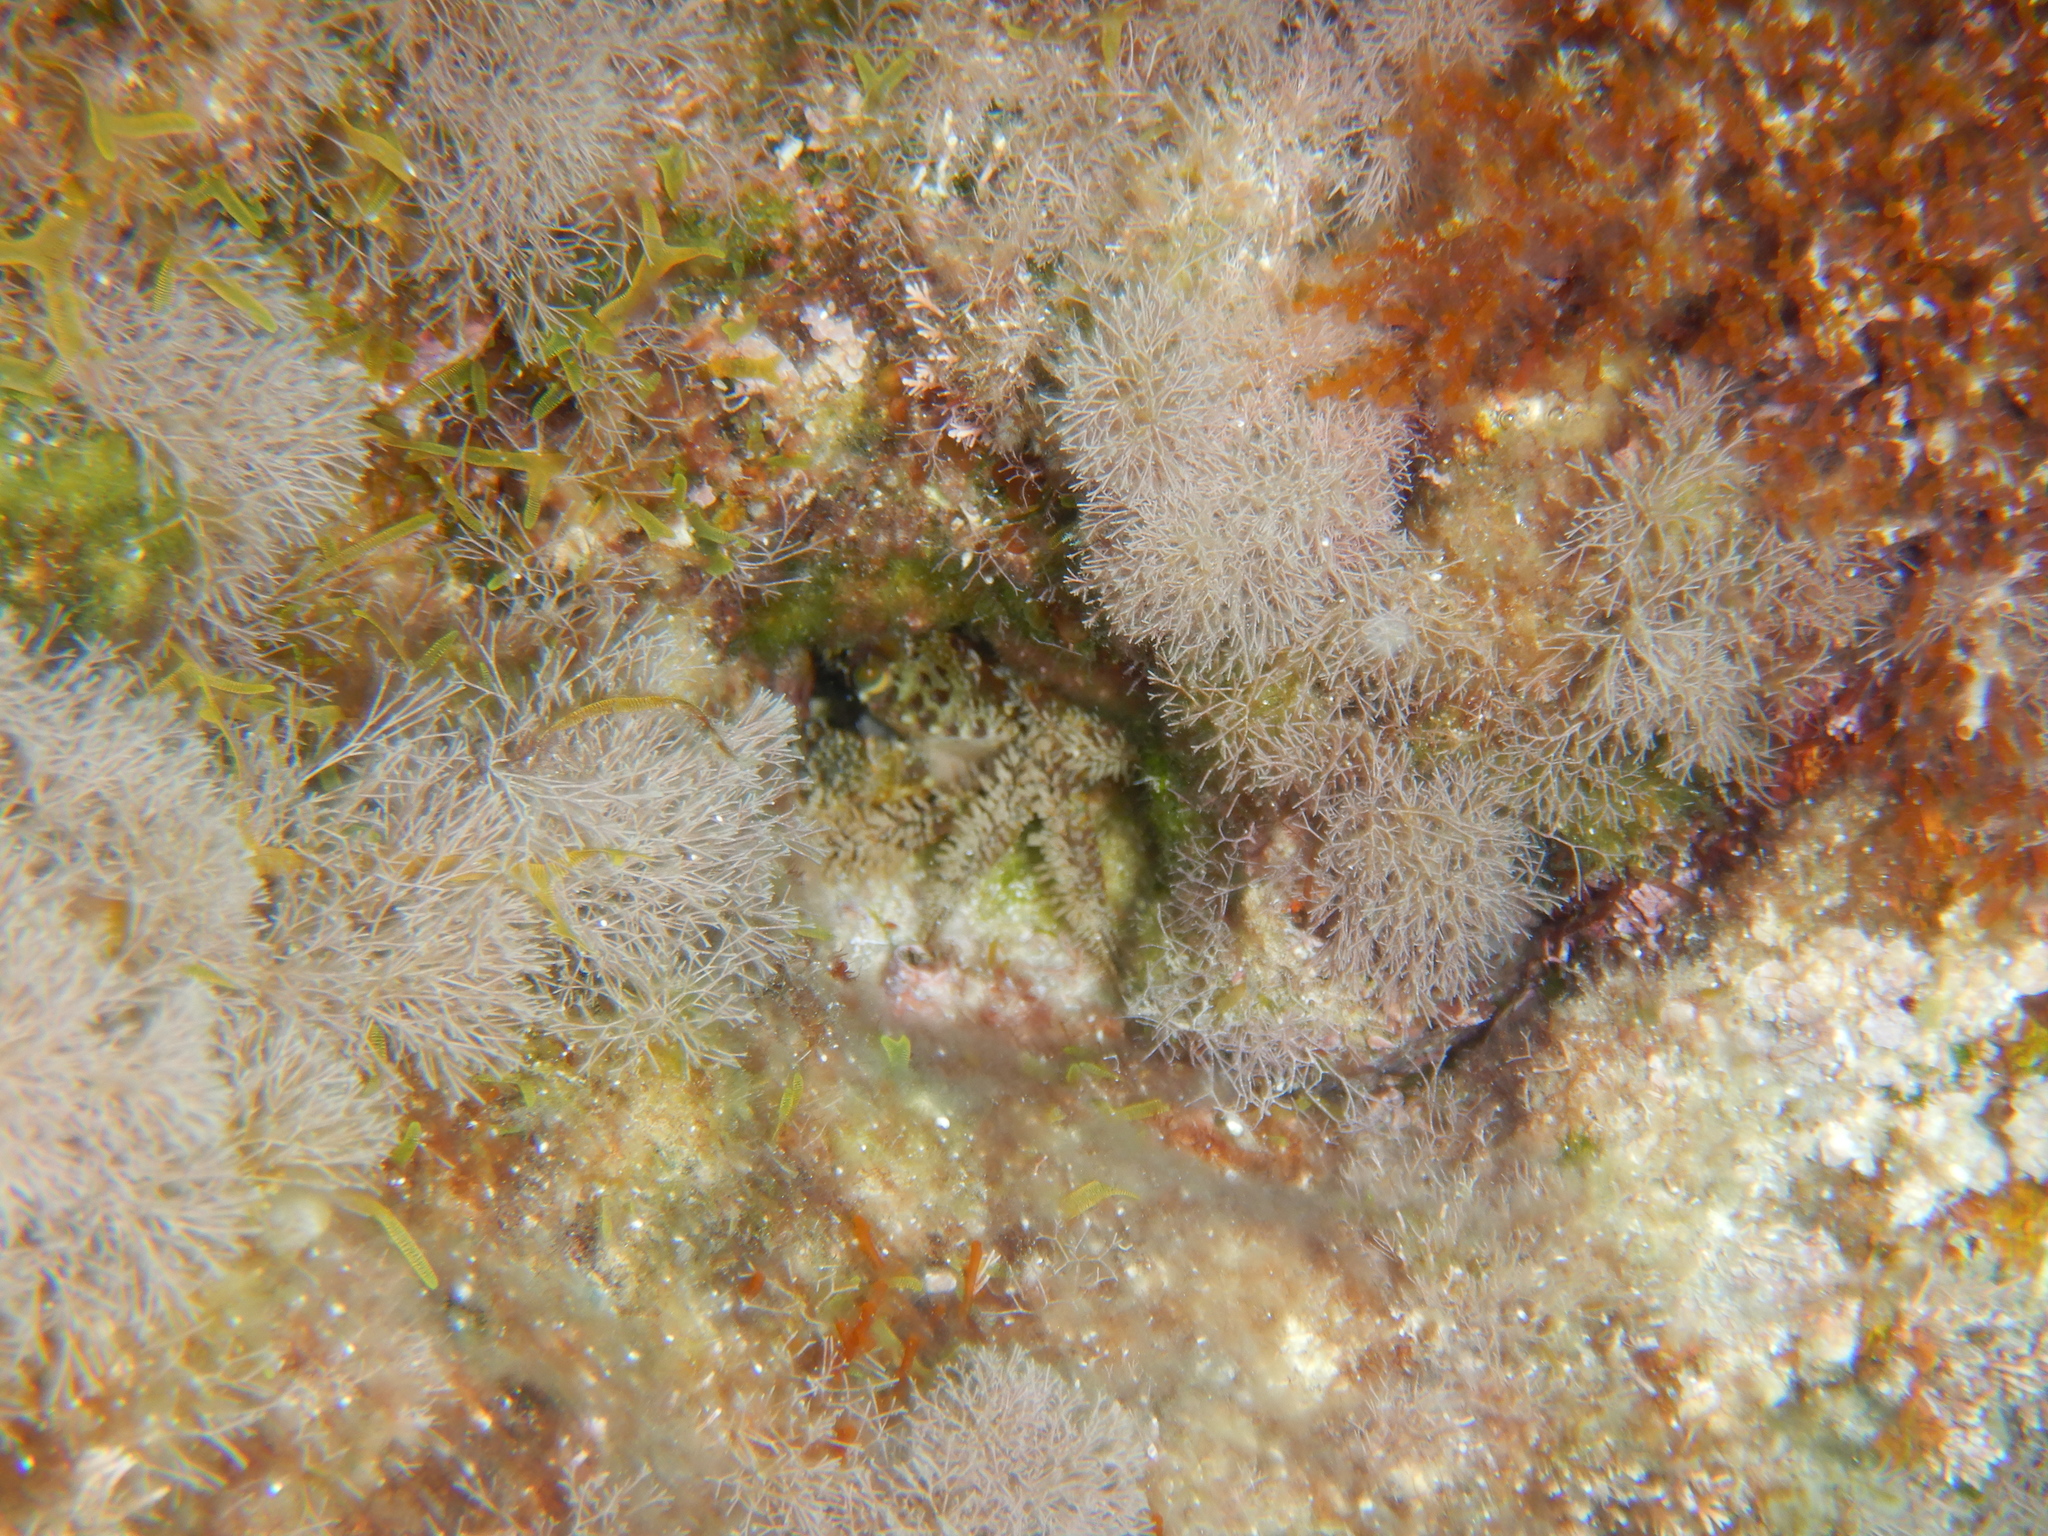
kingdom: Animalia
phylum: Arthropoda
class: Malacostraca
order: Decapoda
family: Eriphiidae
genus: Eriphia
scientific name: Eriphia verrucosa
